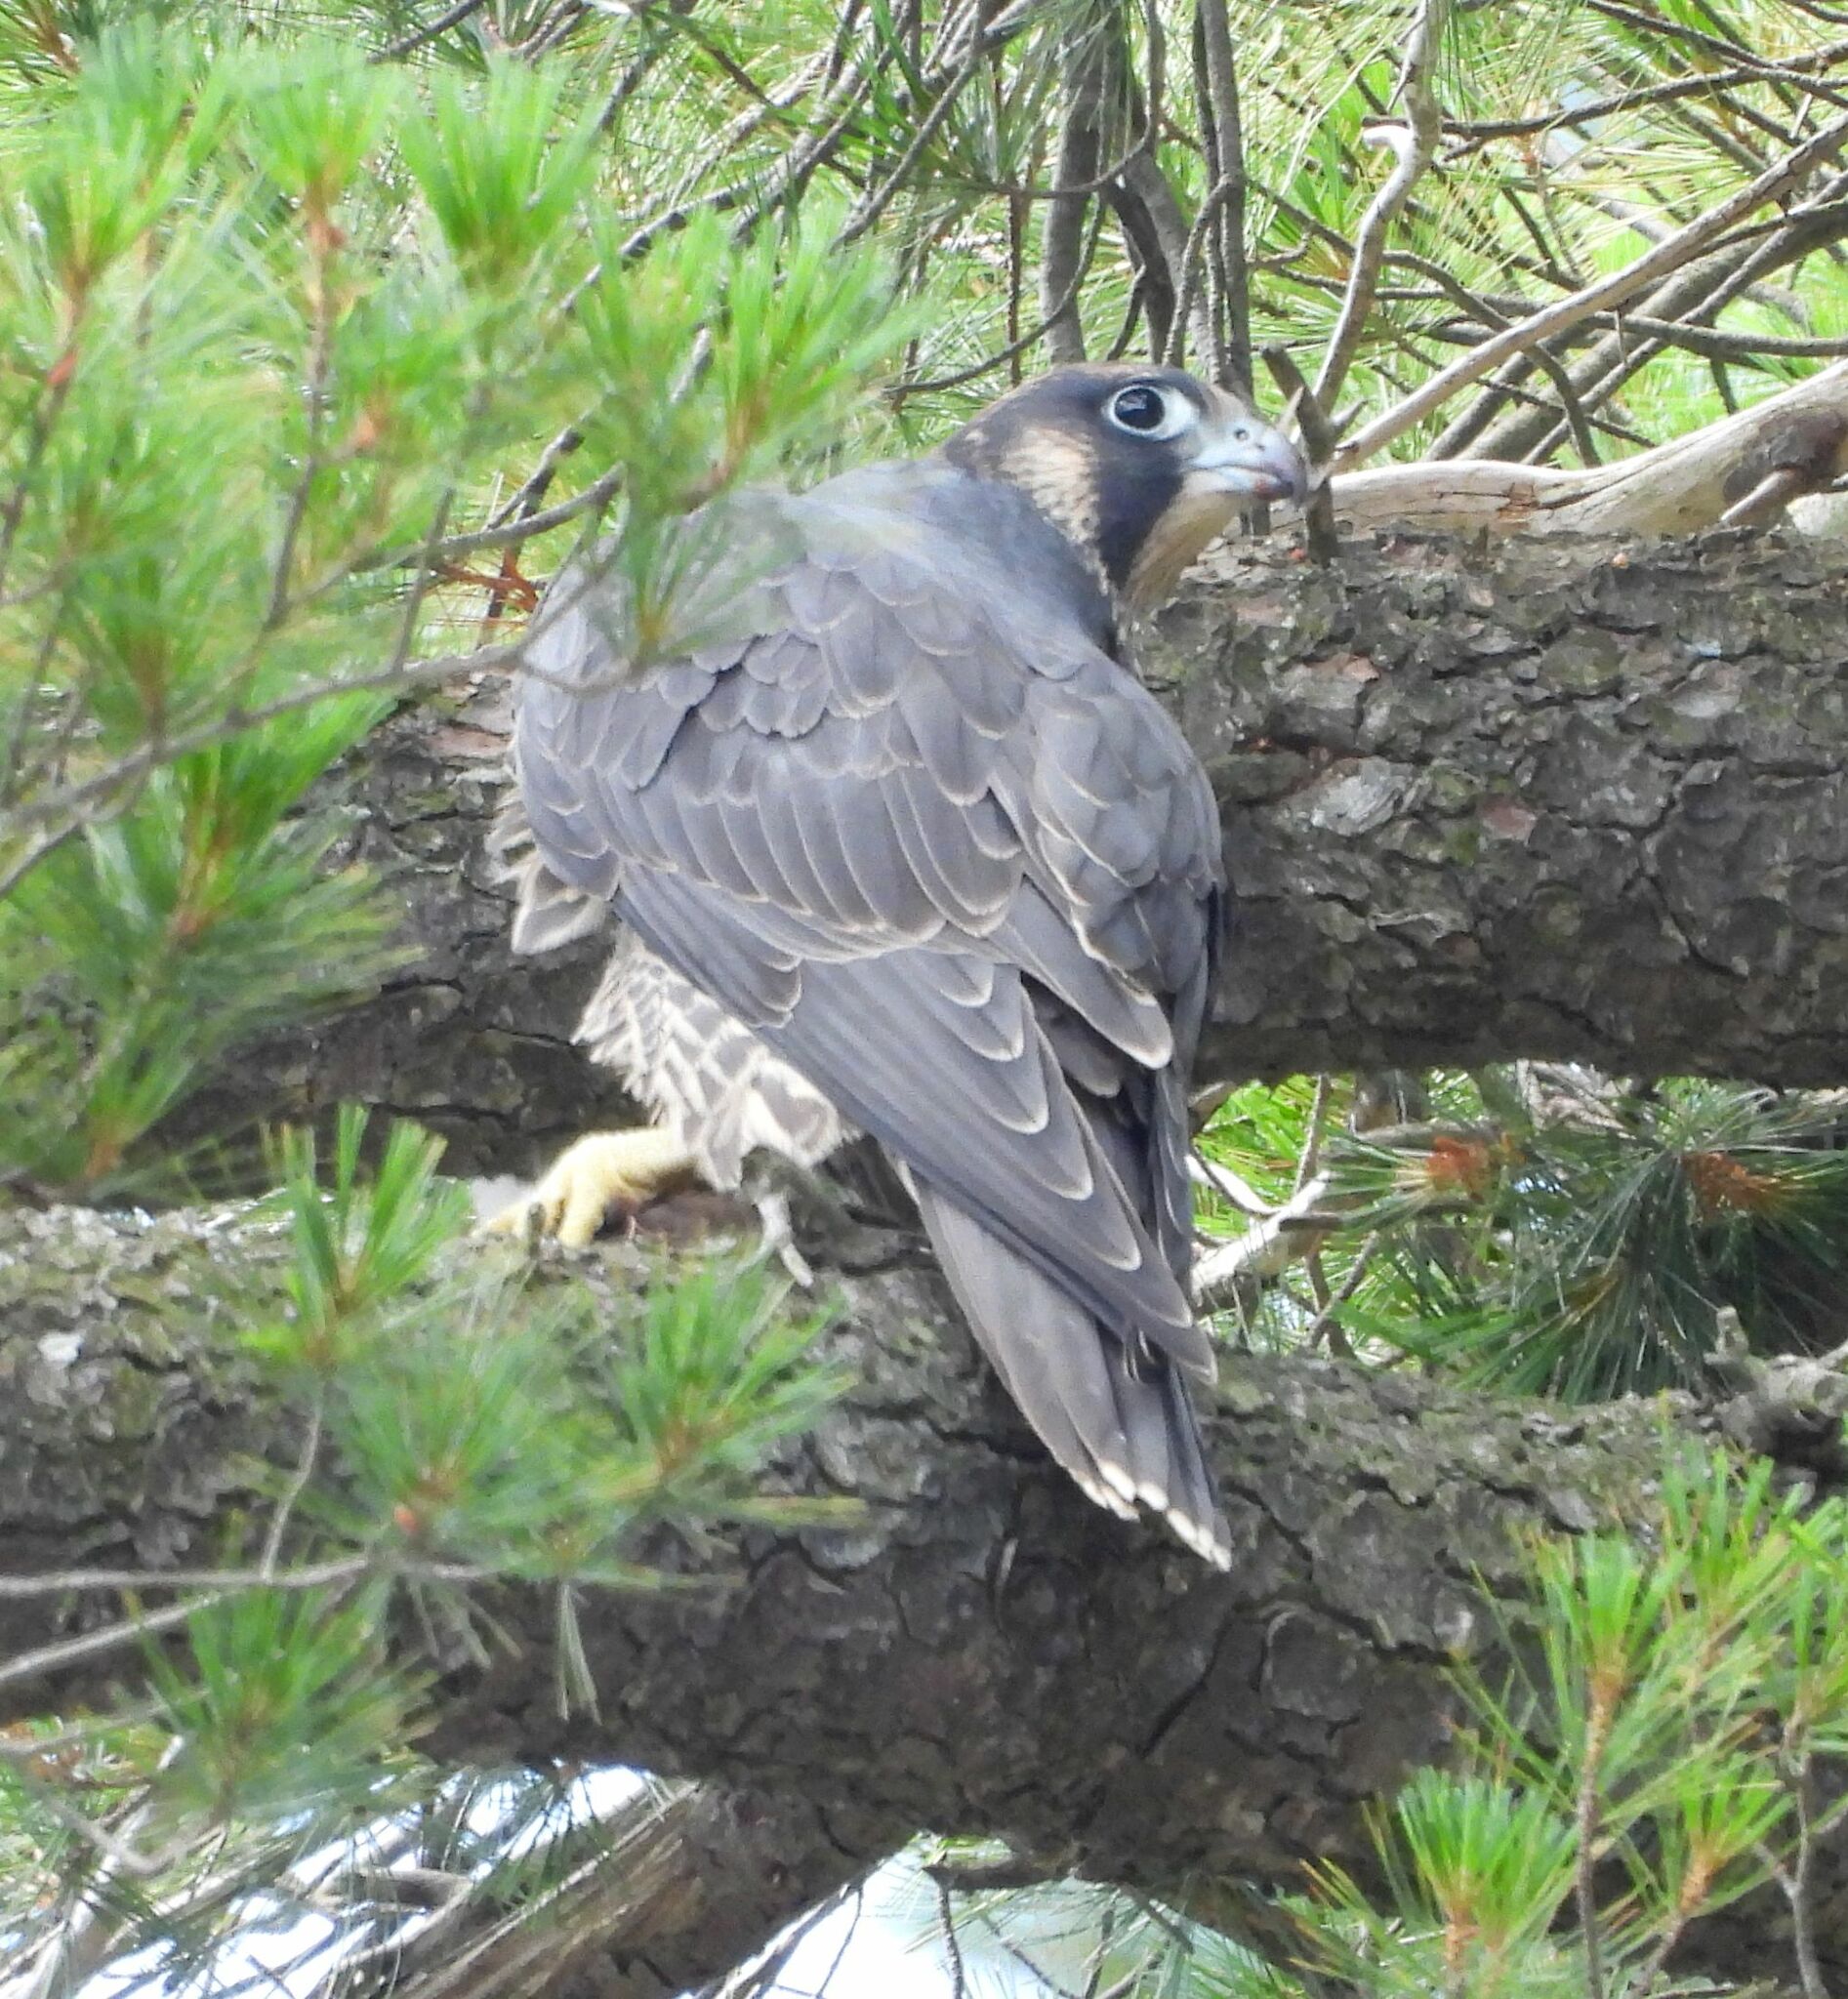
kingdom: Animalia
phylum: Chordata
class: Aves
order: Falconiformes
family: Falconidae
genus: Falco
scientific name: Falco peregrinus
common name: Peregrine falcon
